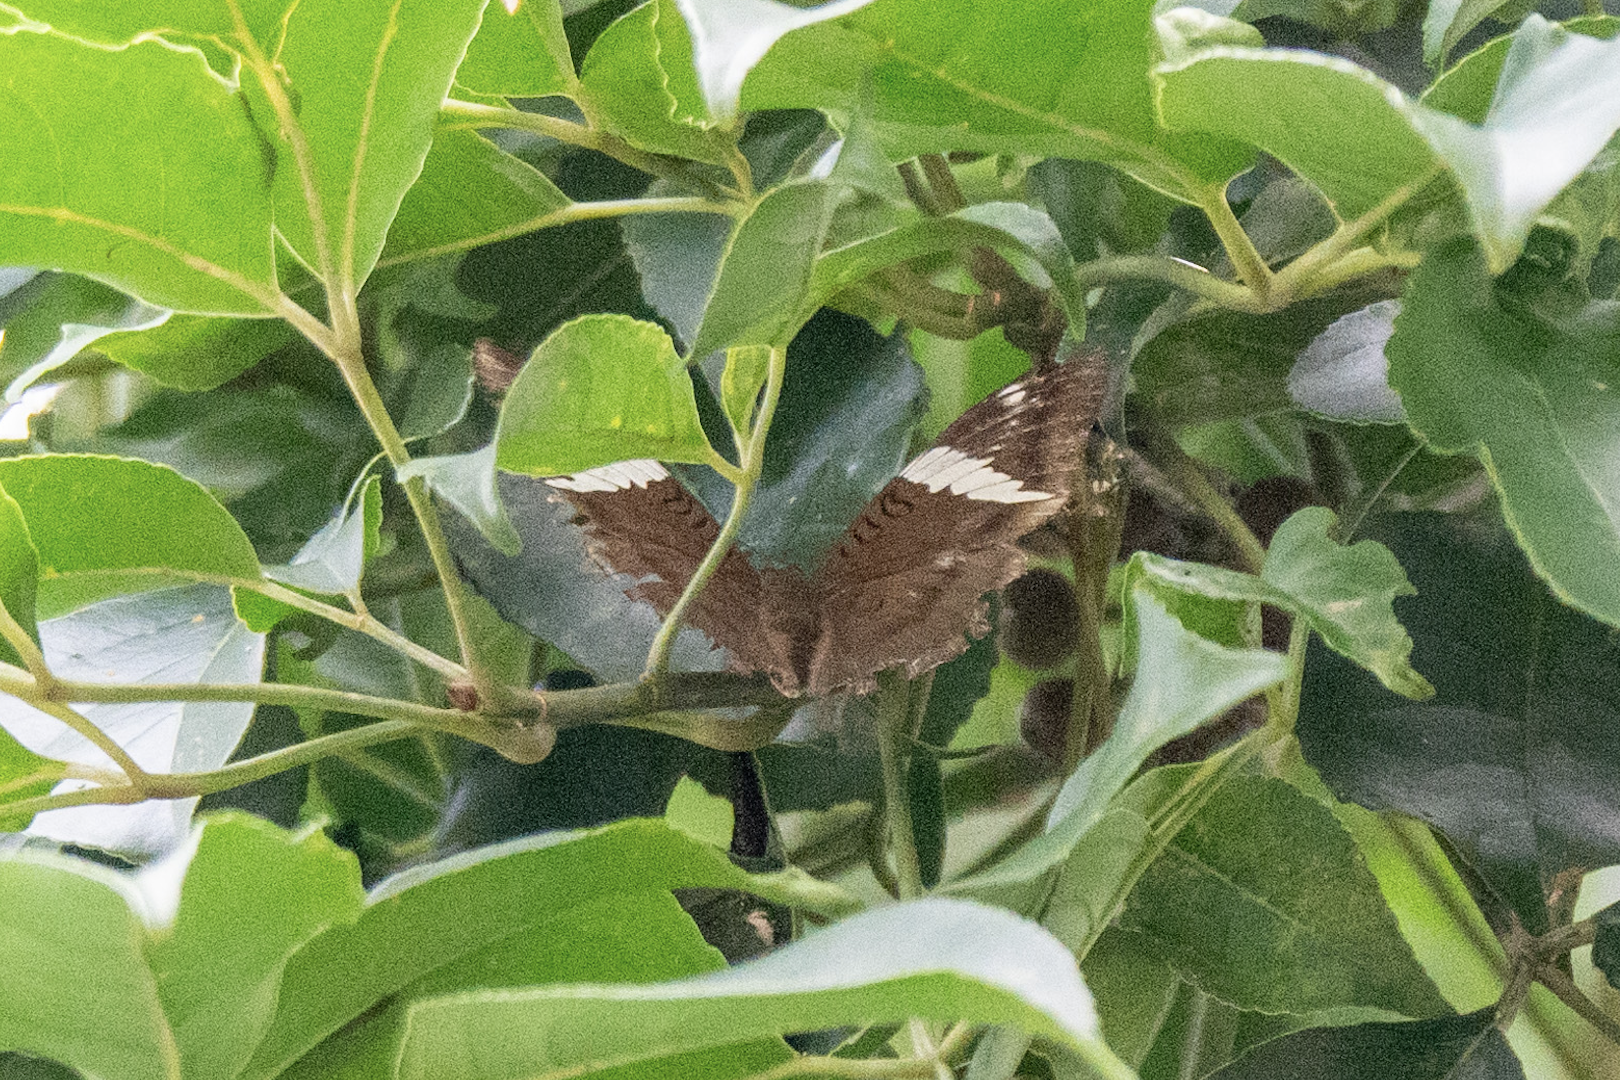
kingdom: Animalia
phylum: Arthropoda
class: Insecta
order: Lepidoptera
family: Nymphalidae
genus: Euthalia
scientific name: Euthalia phemius
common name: White-edged blue baron
